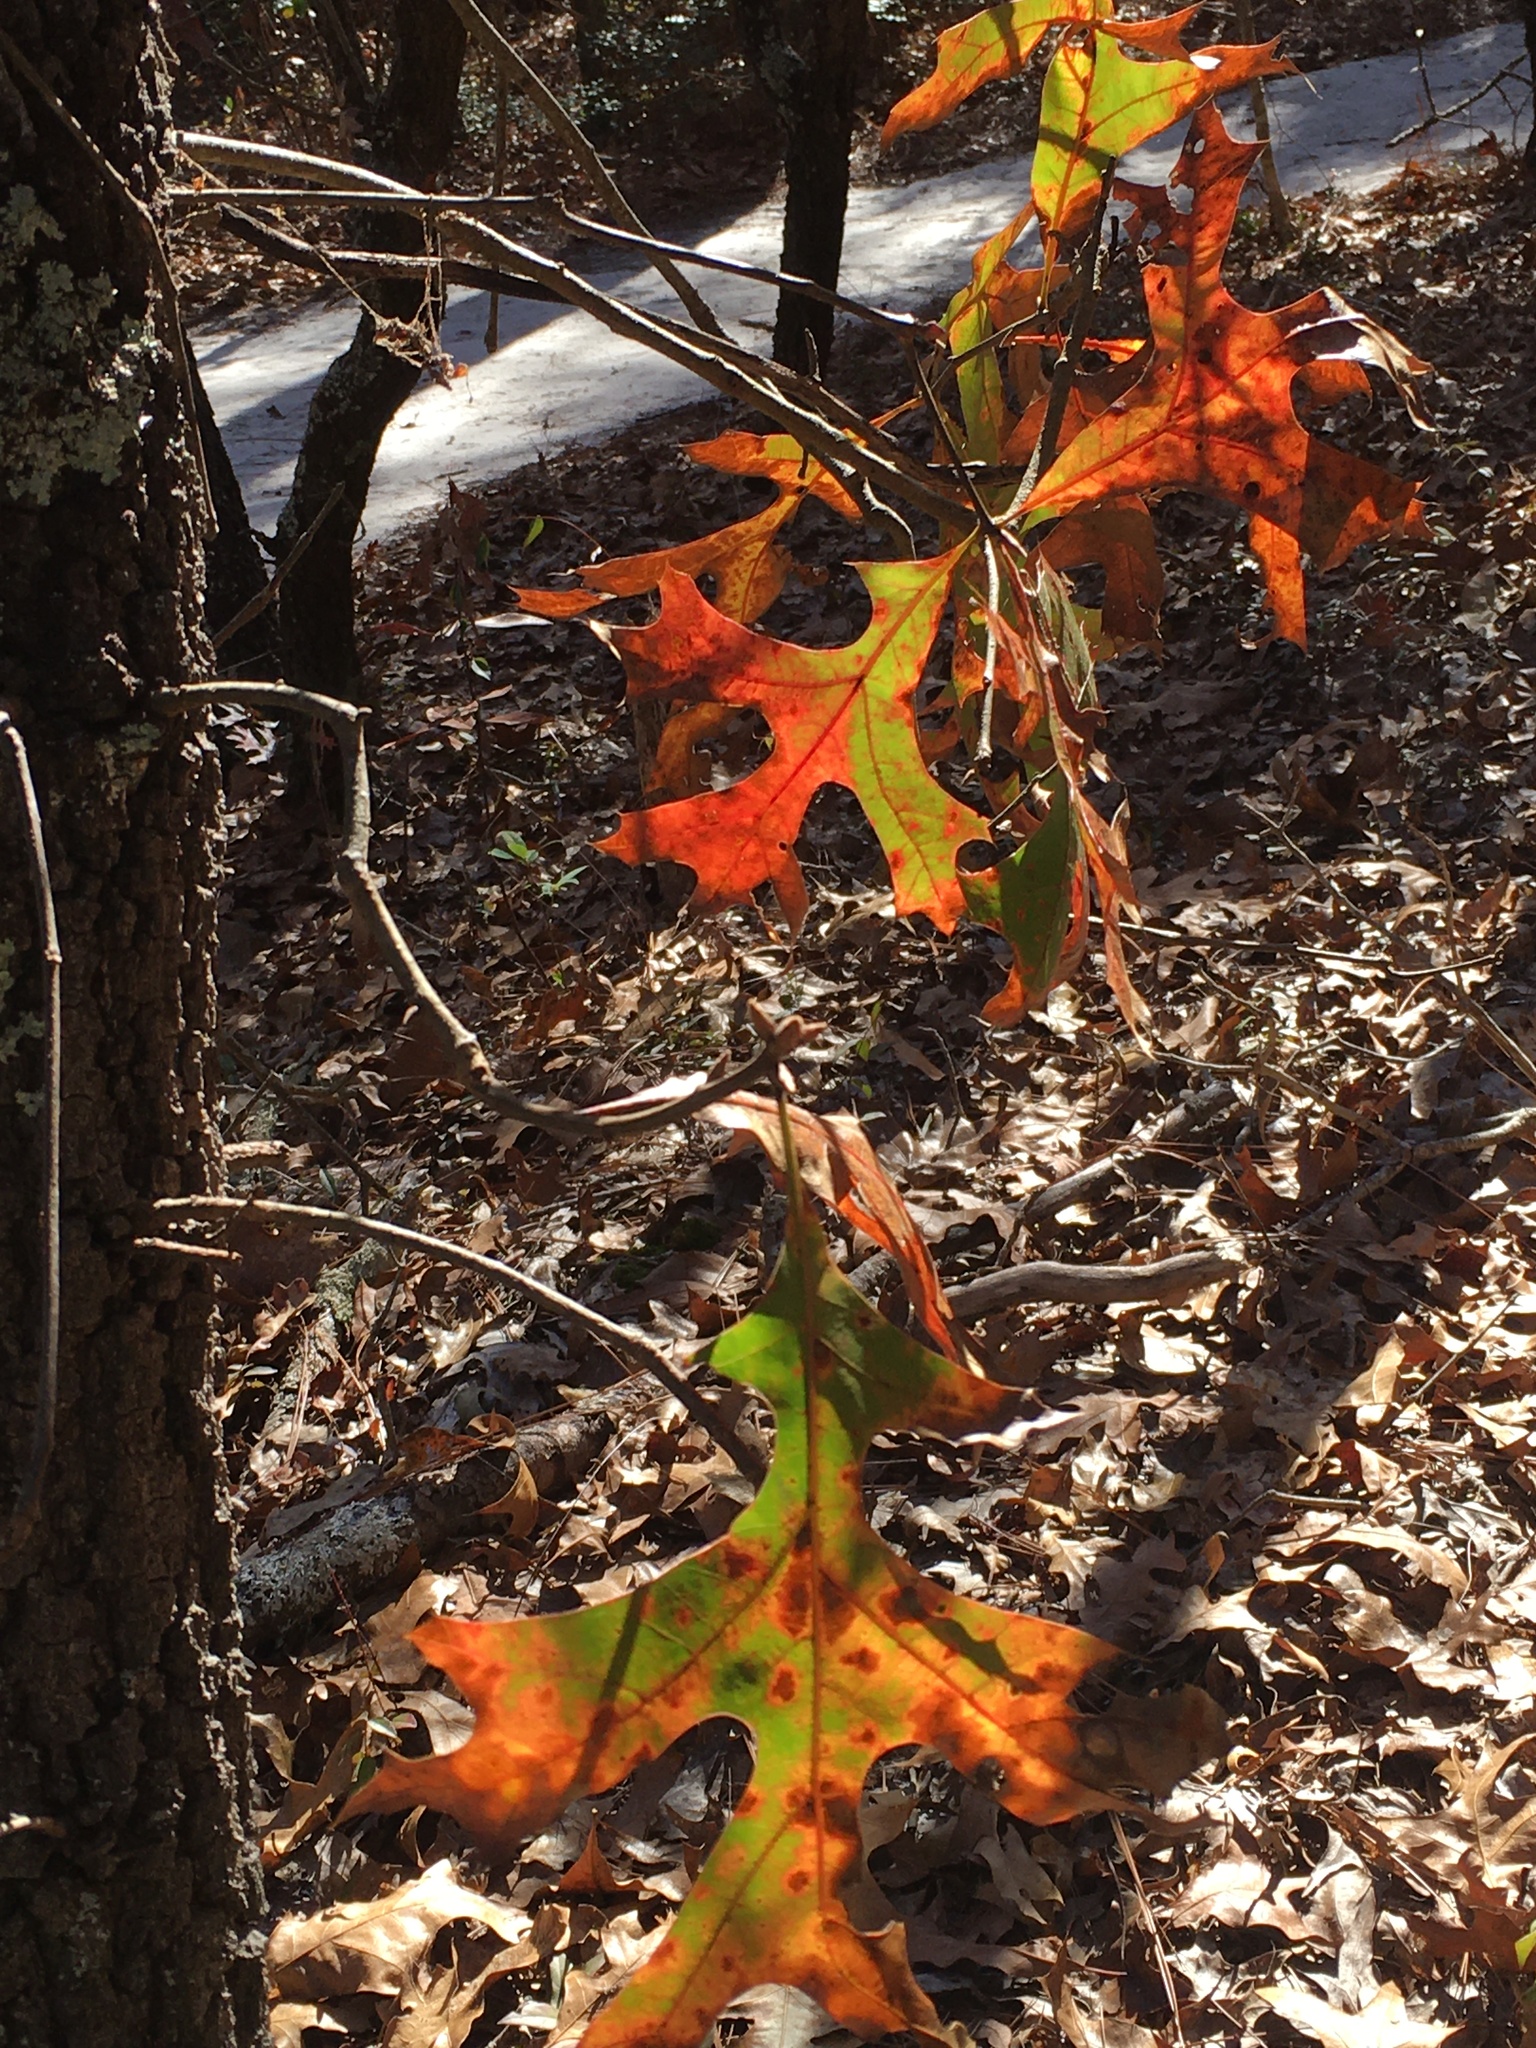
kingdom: Plantae
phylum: Tracheophyta
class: Magnoliopsida
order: Fagales
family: Fagaceae
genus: Quercus
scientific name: Quercus laevis
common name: Turkey oak
